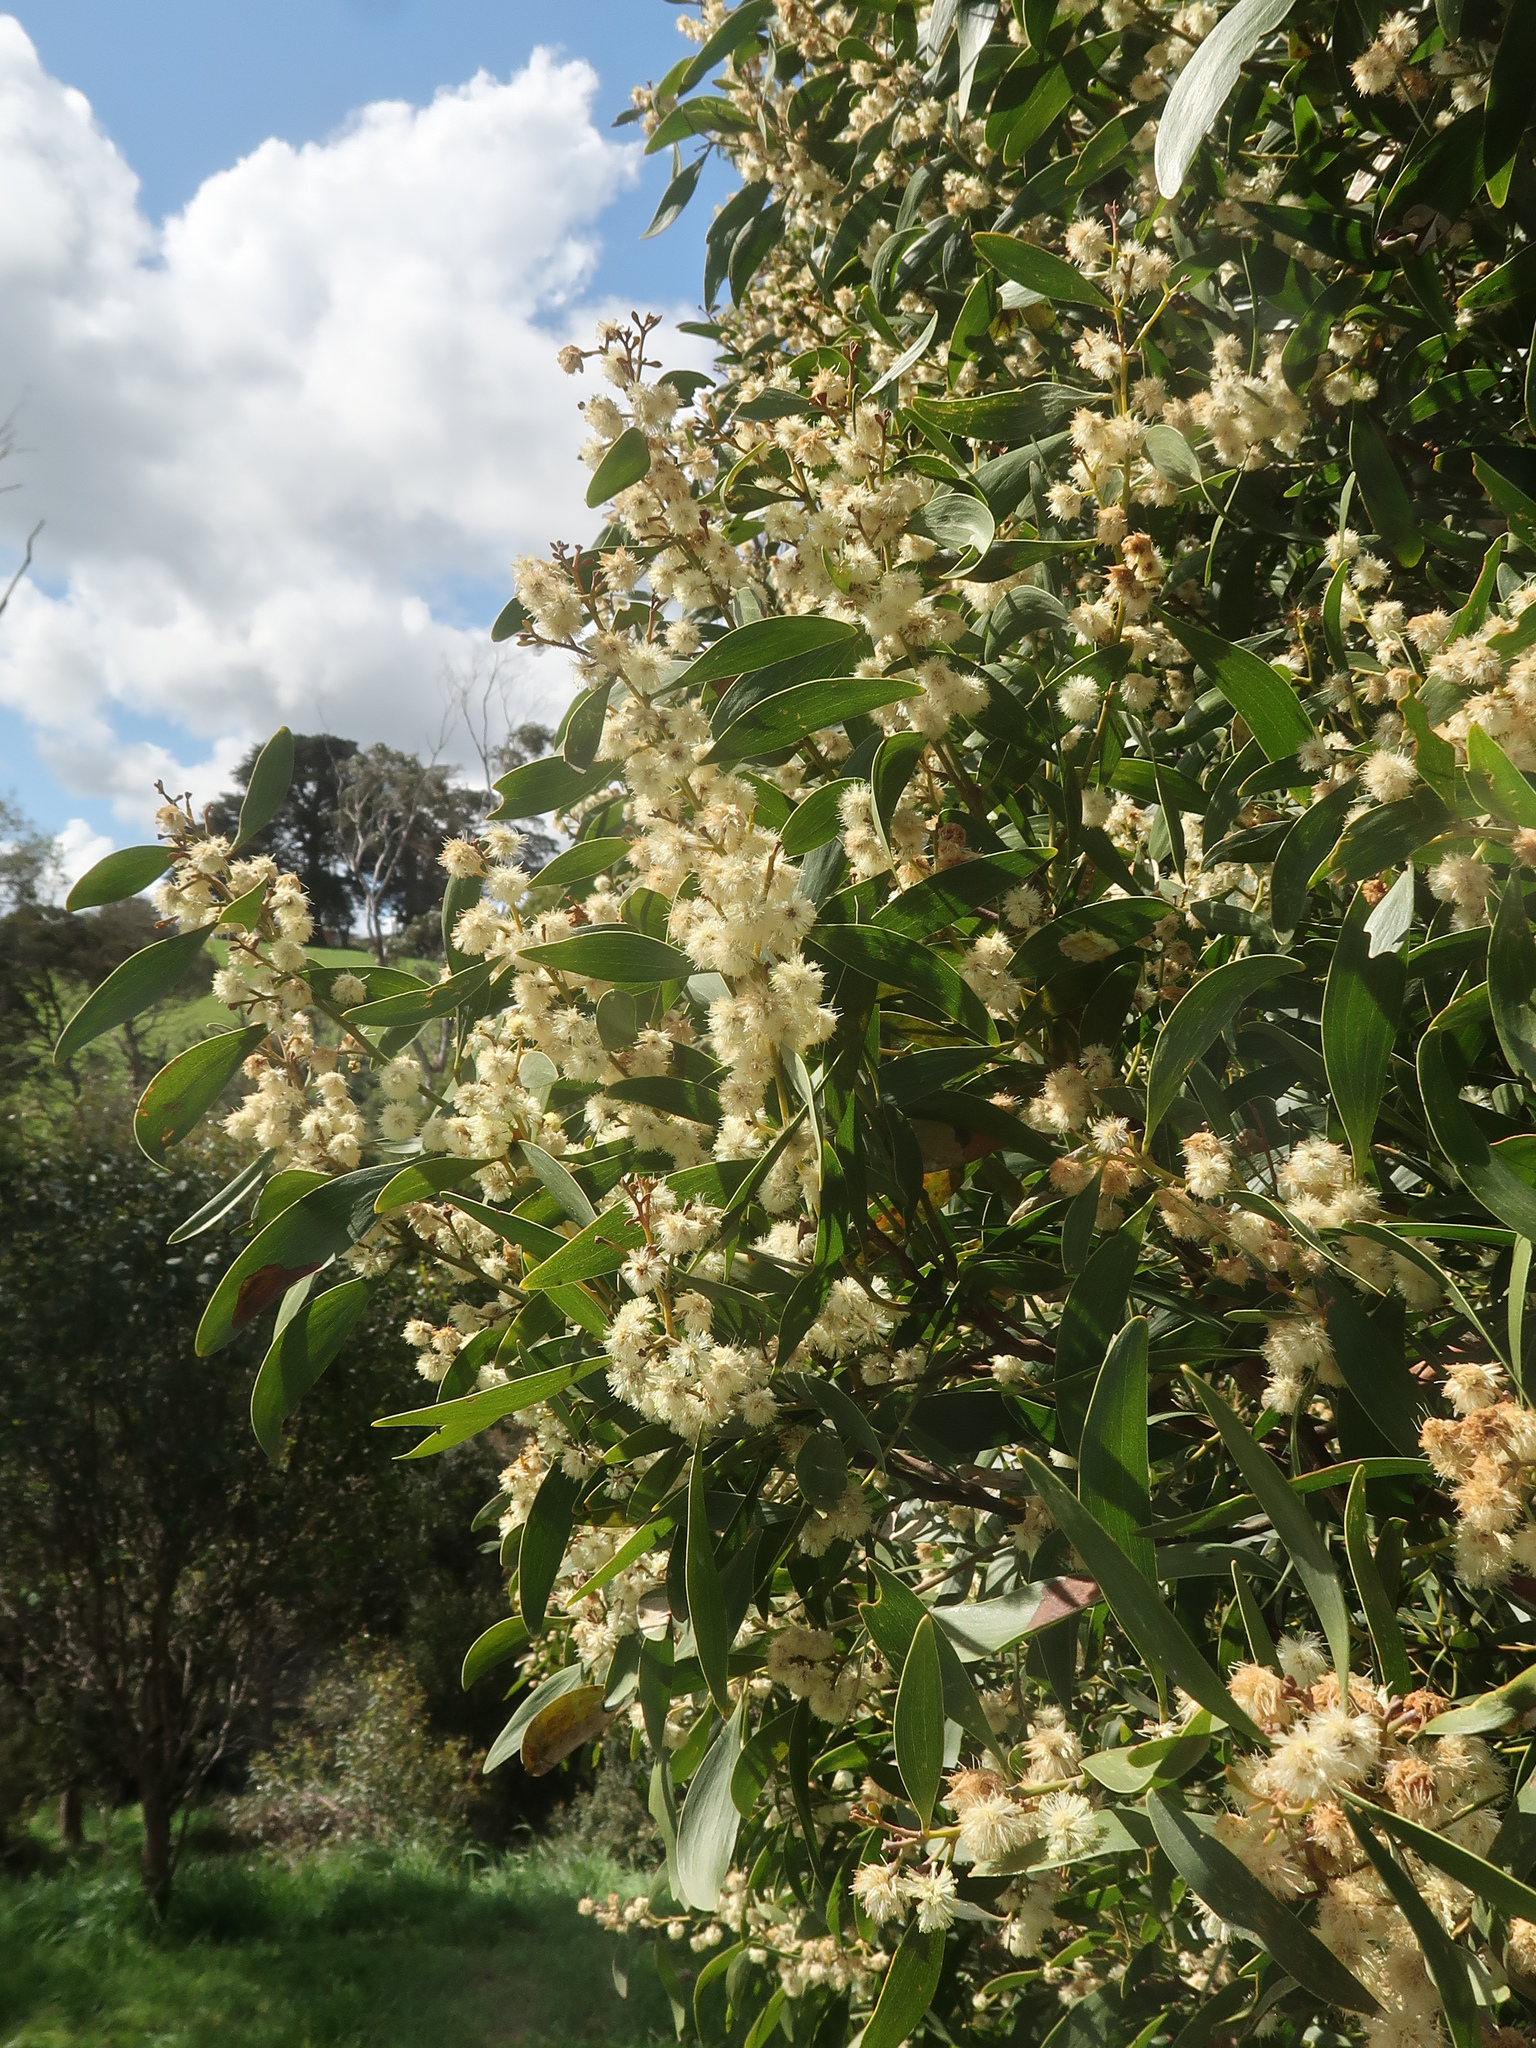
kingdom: Plantae
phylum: Tracheophyta
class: Magnoliopsida
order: Fabales
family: Fabaceae
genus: Acacia
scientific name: Acacia melanoxylon
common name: Blackwood
